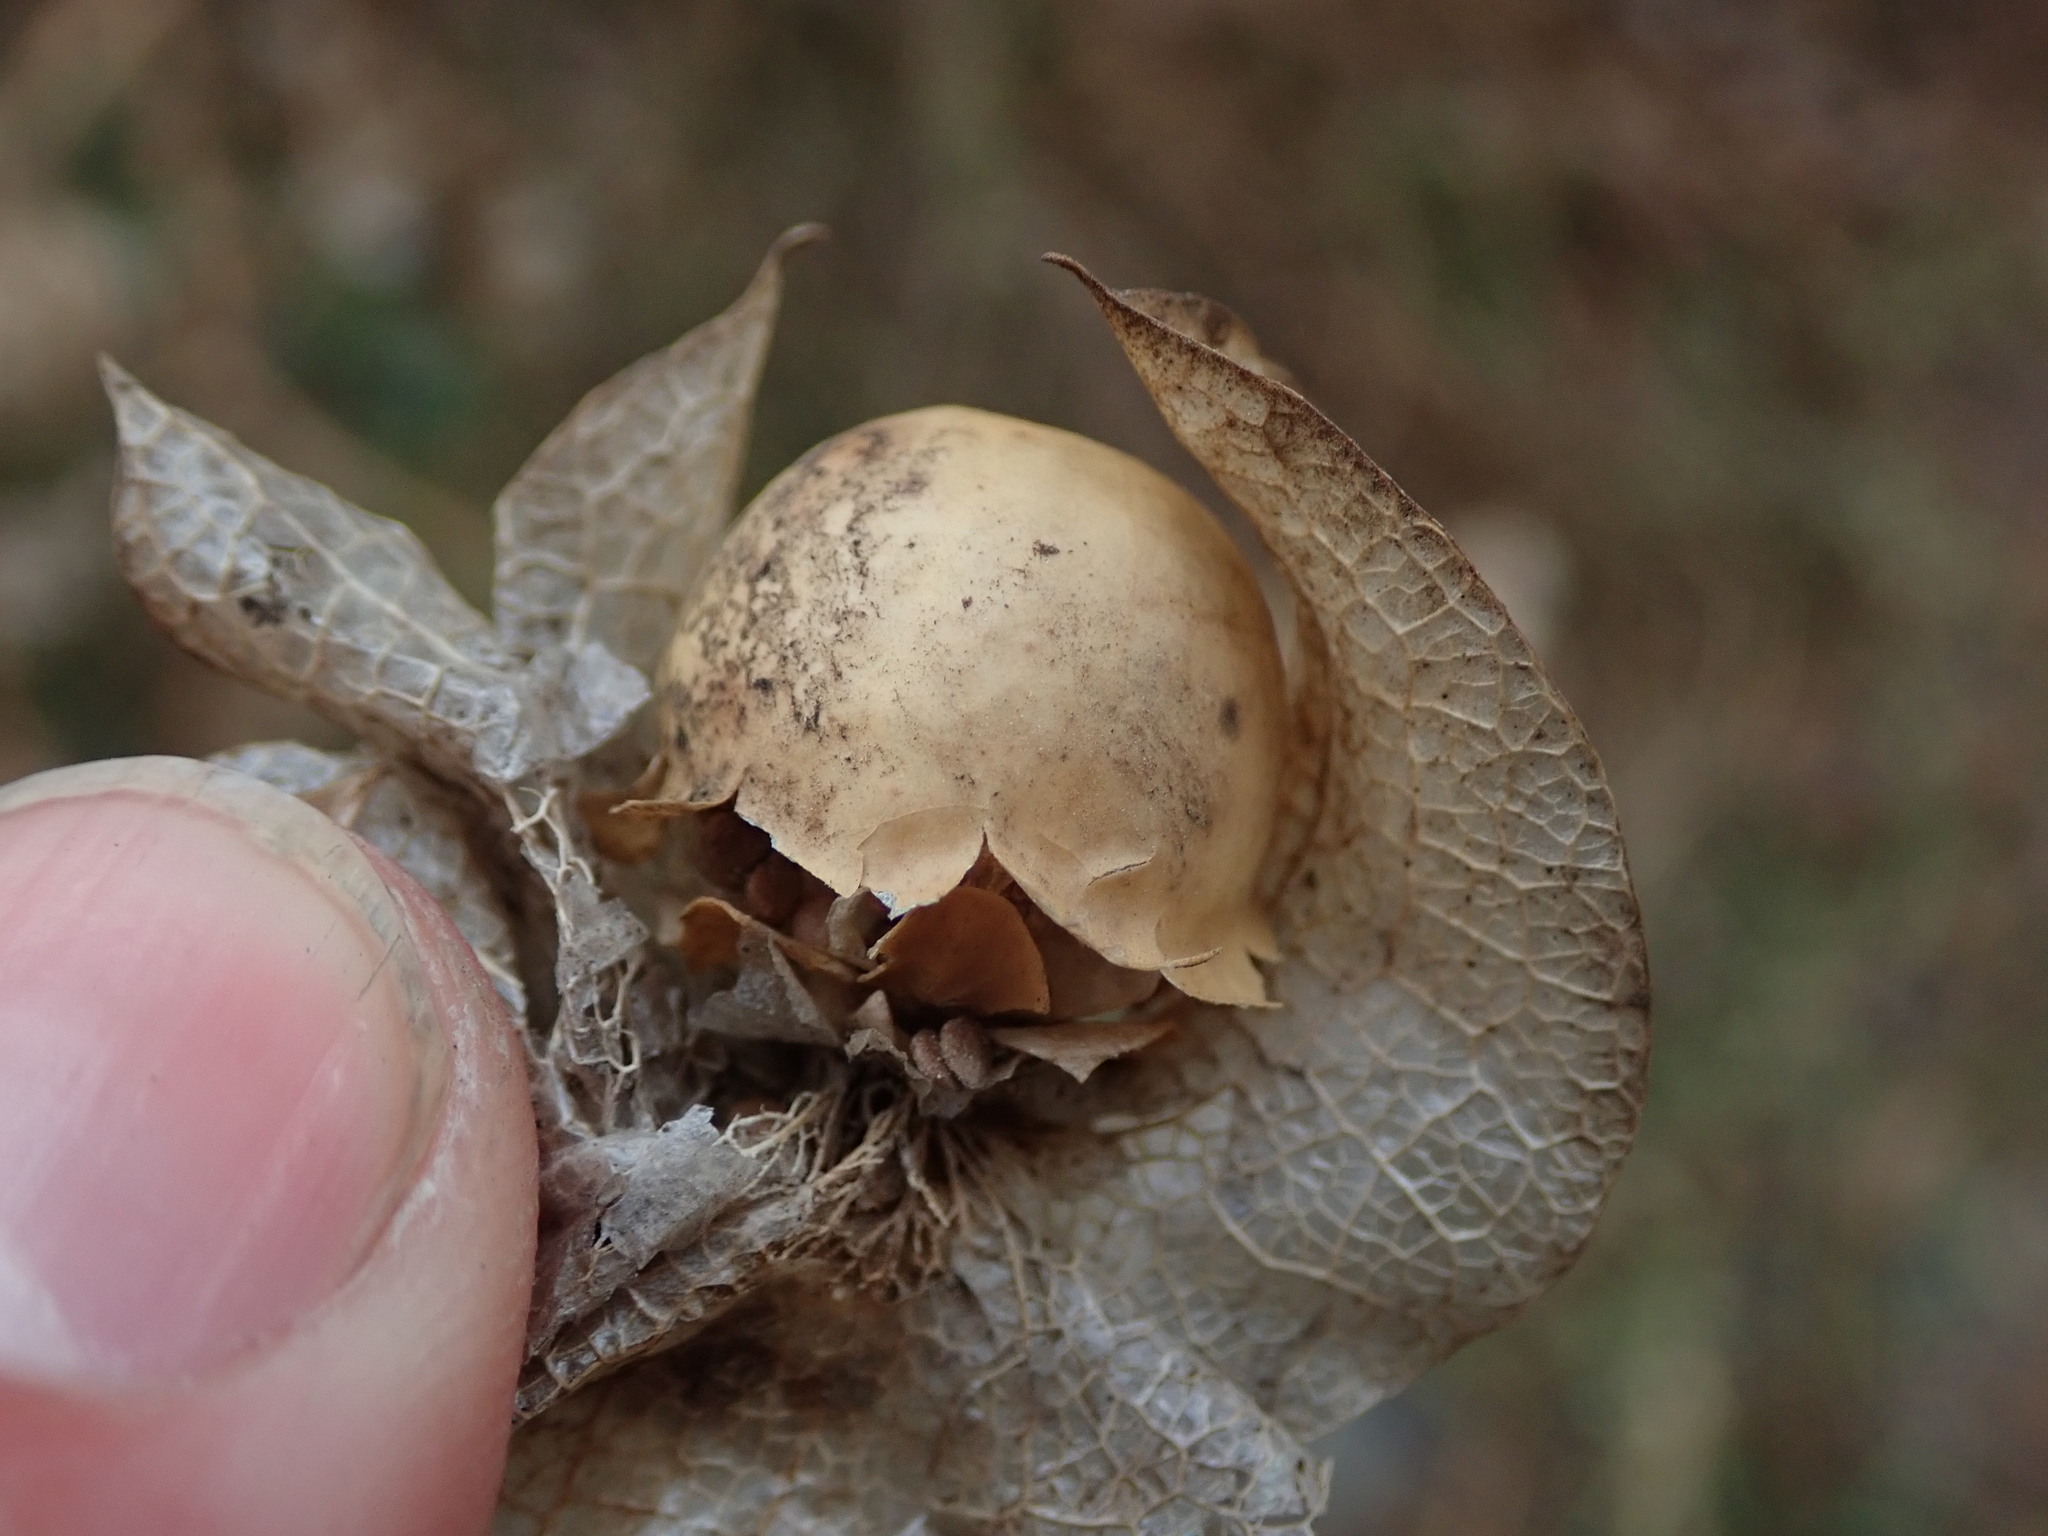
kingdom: Plantae
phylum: Tracheophyta
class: Magnoliopsida
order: Solanales
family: Solanaceae
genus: Nicandra
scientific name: Nicandra physalodes
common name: Apple-of-peru
